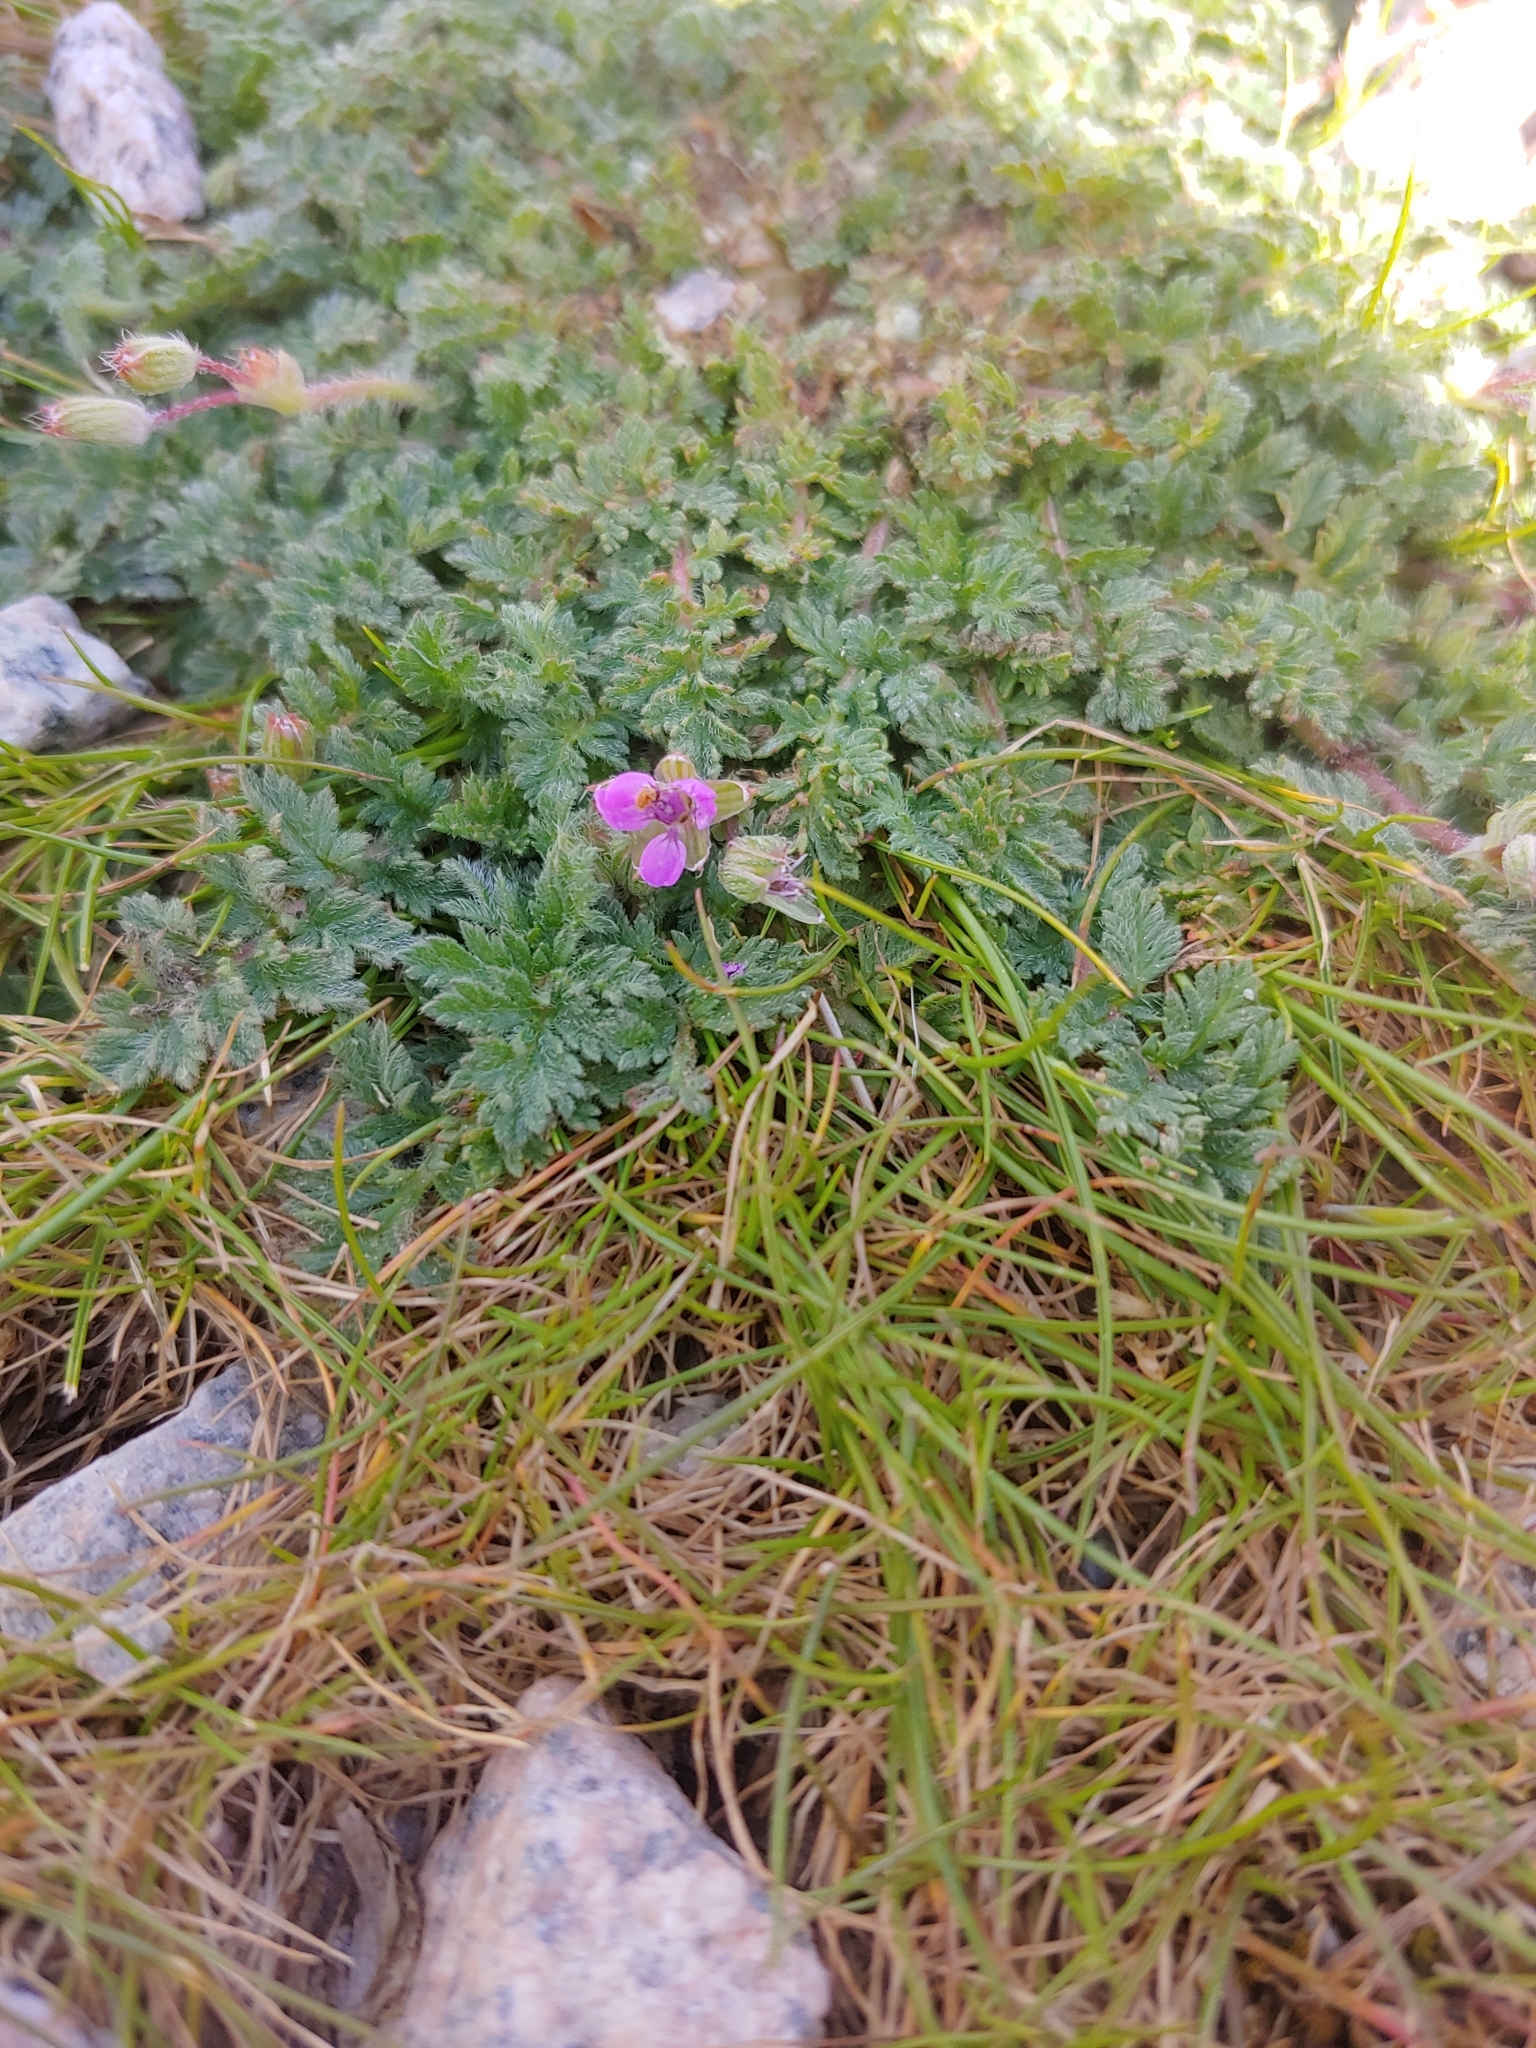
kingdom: Plantae
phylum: Tracheophyta
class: Magnoliopsida
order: Geraniales
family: Geraniaceae
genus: Erodium
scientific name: Erodium cicutarium
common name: Common stork's-bill
